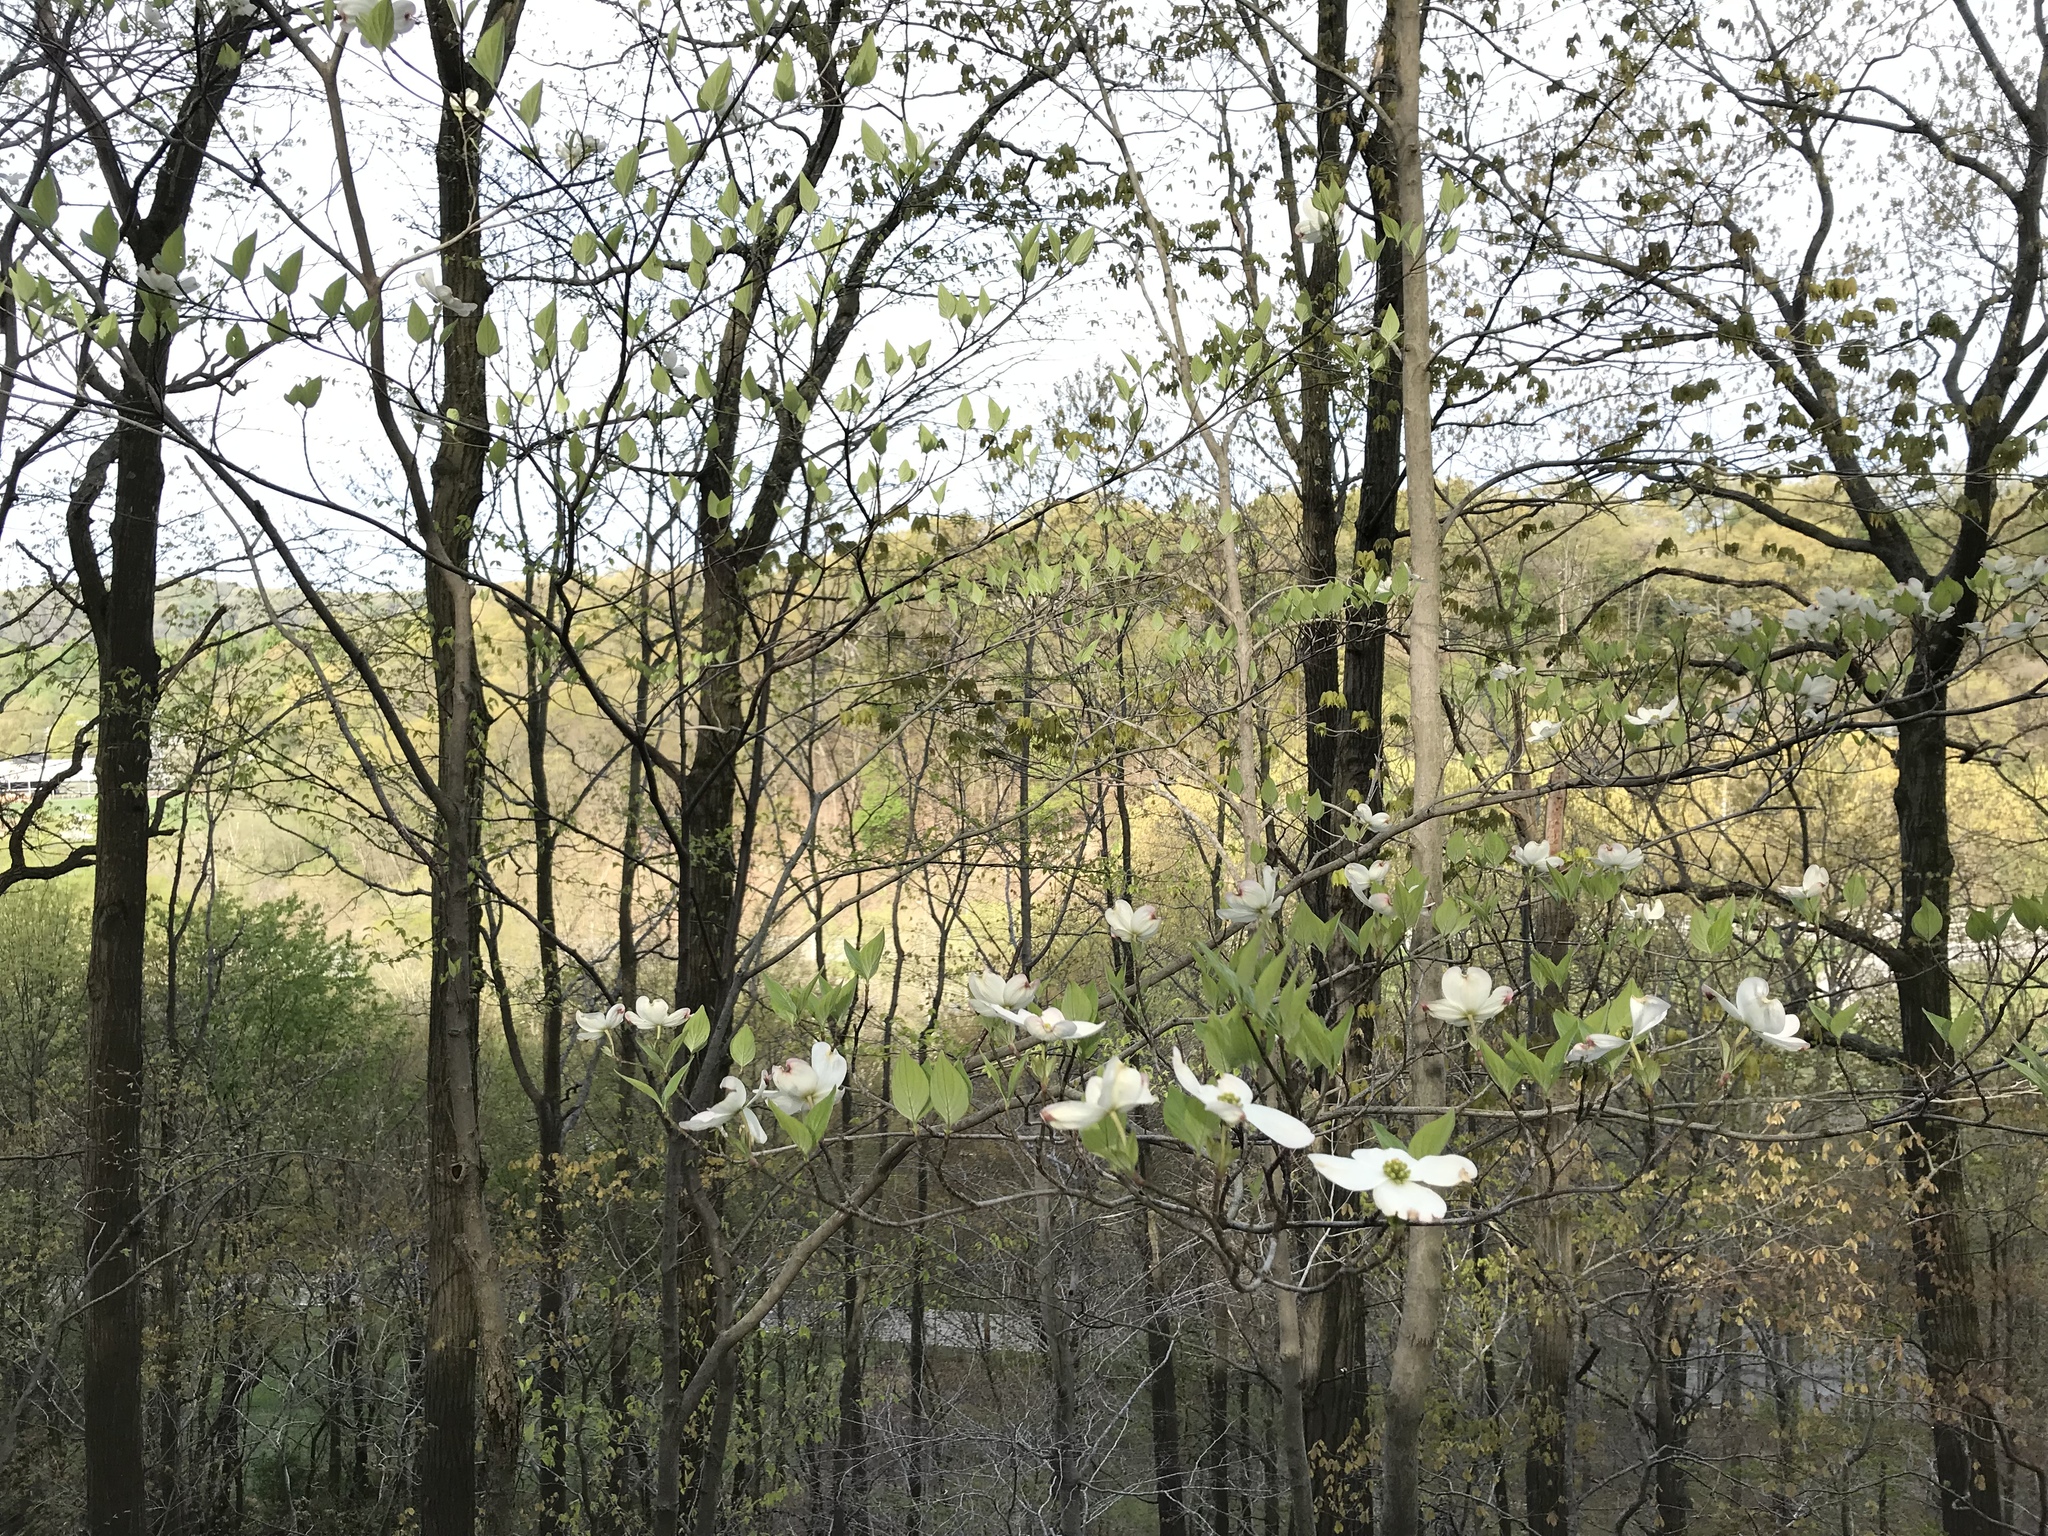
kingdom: Plantae
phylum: Tracheophyta
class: Magnoliopsida
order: Cornales
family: Cornaceae
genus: Cornus
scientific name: Cornus florida
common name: Flowering dogwood
